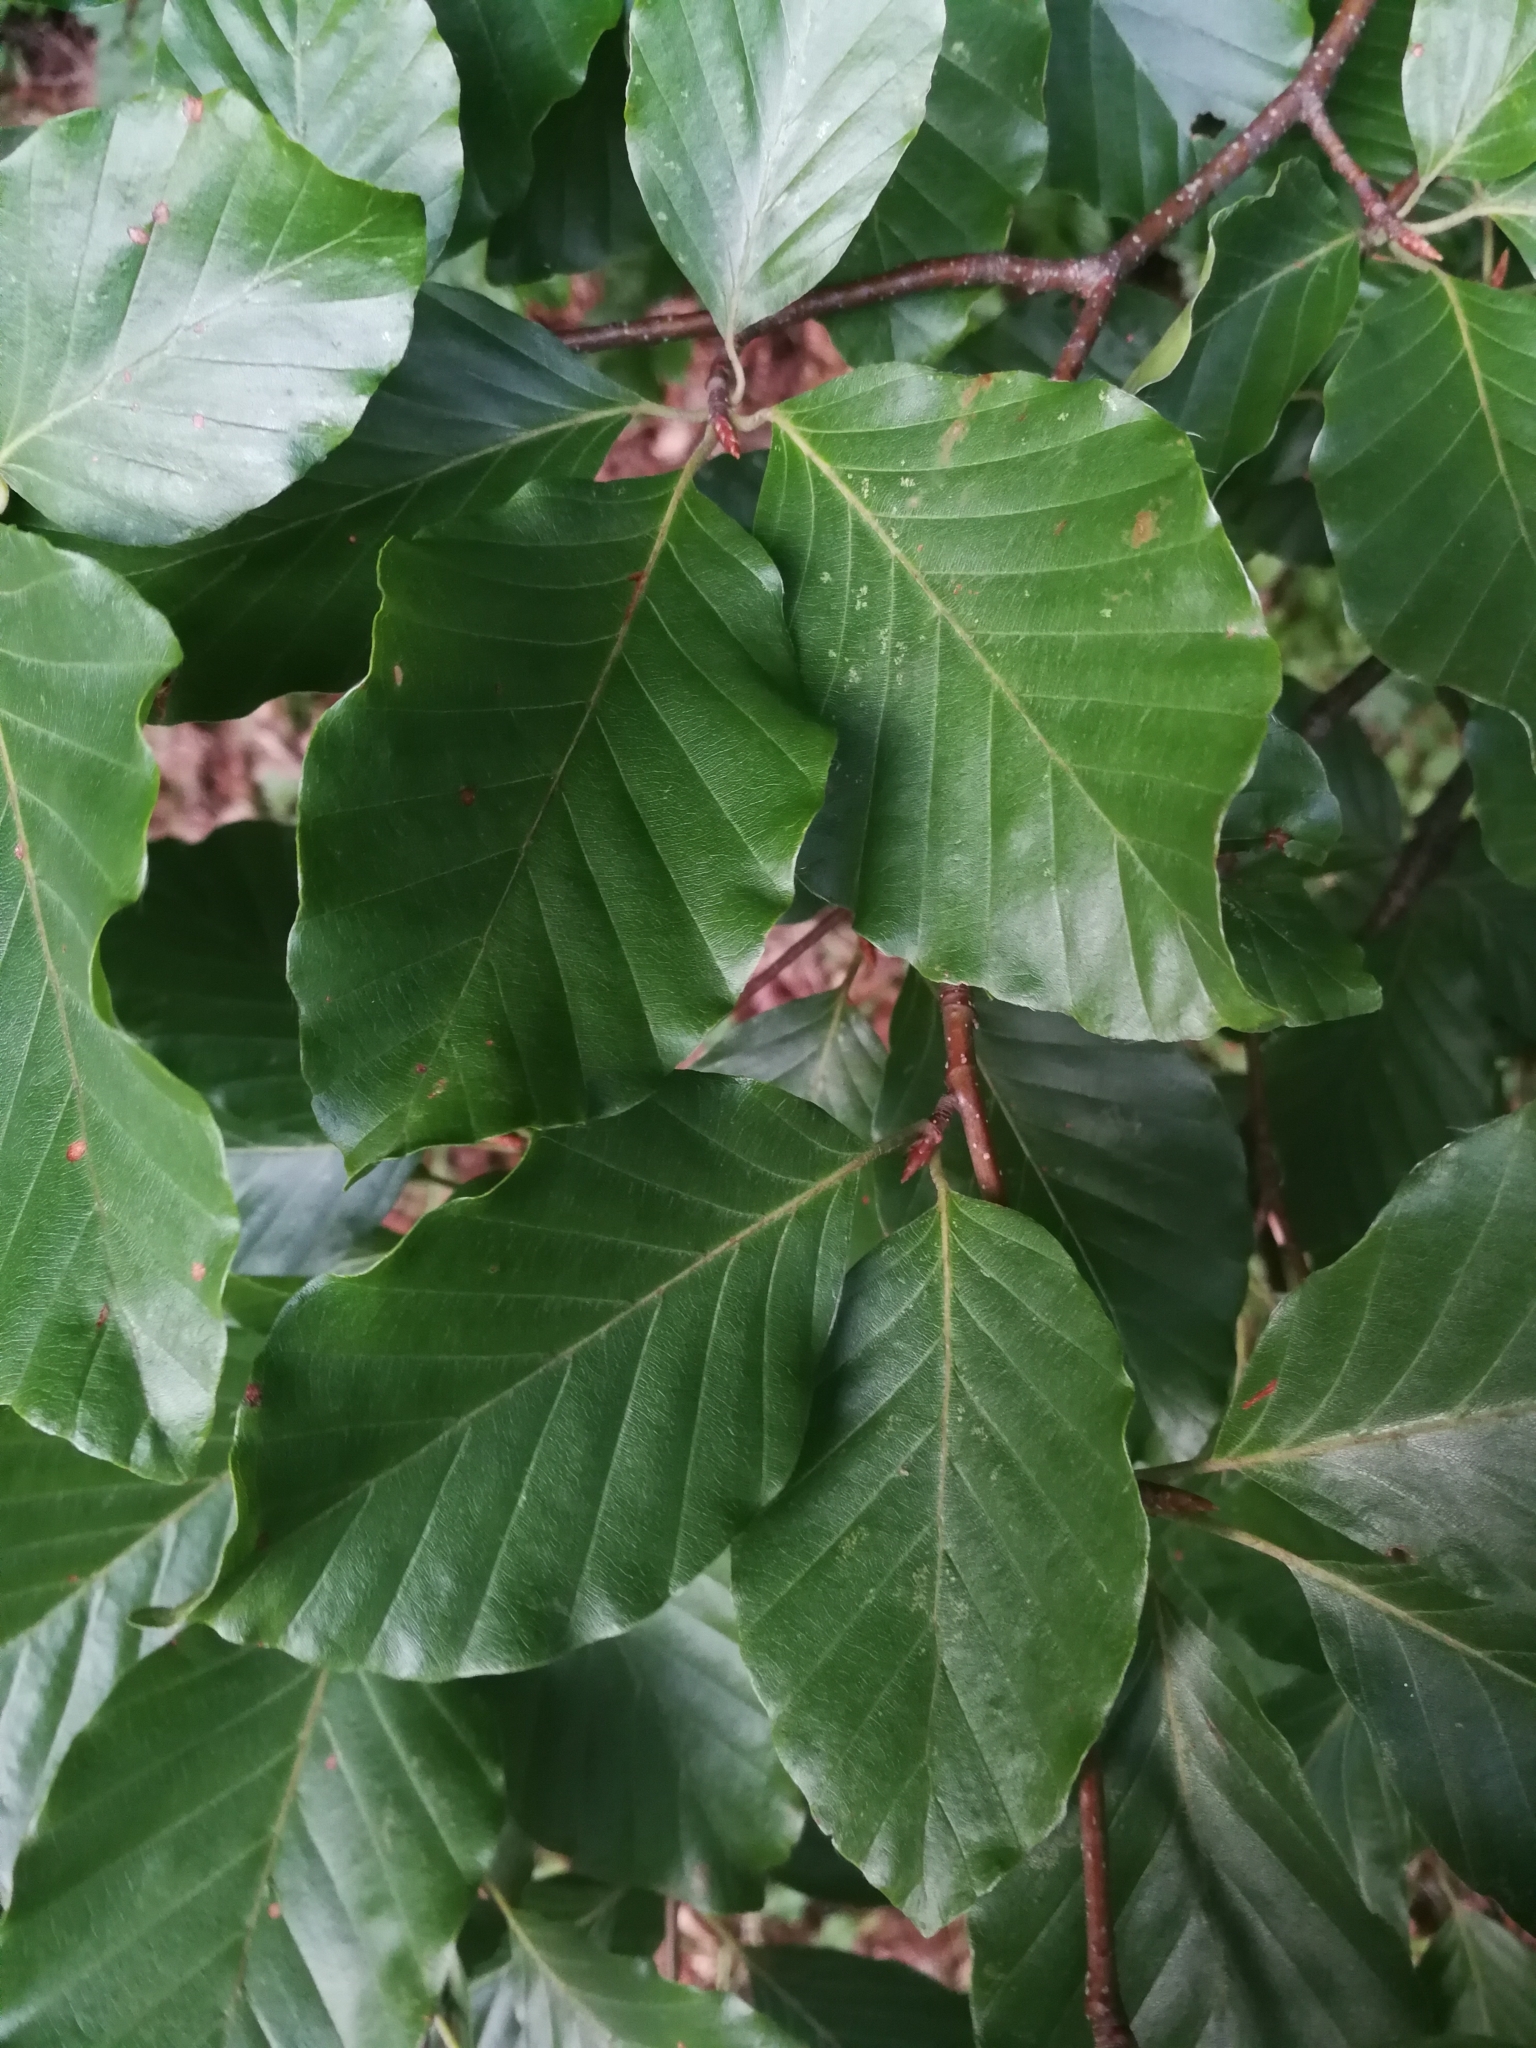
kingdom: Plantae
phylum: Tracheophyta
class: Magnoliopsida
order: Fagales
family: Fagaceae
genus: Fagus
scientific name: Fagus sylvatica
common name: Beech
